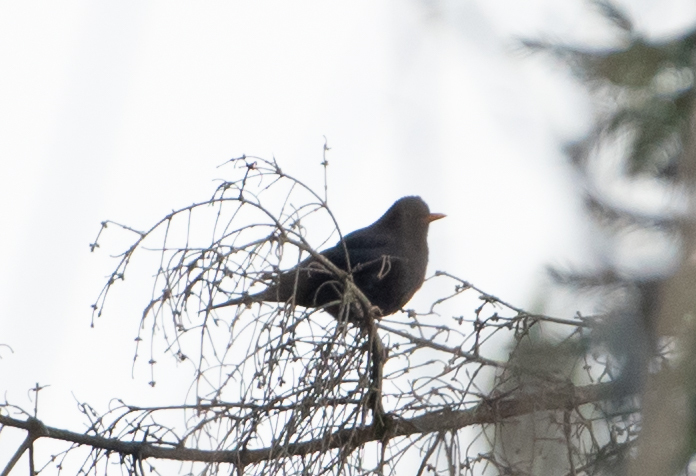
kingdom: Animalia
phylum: Chordata
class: Aves
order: Passeriformes
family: Turdidae
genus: Turdus
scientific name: Turdus merula
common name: Common blackbird
